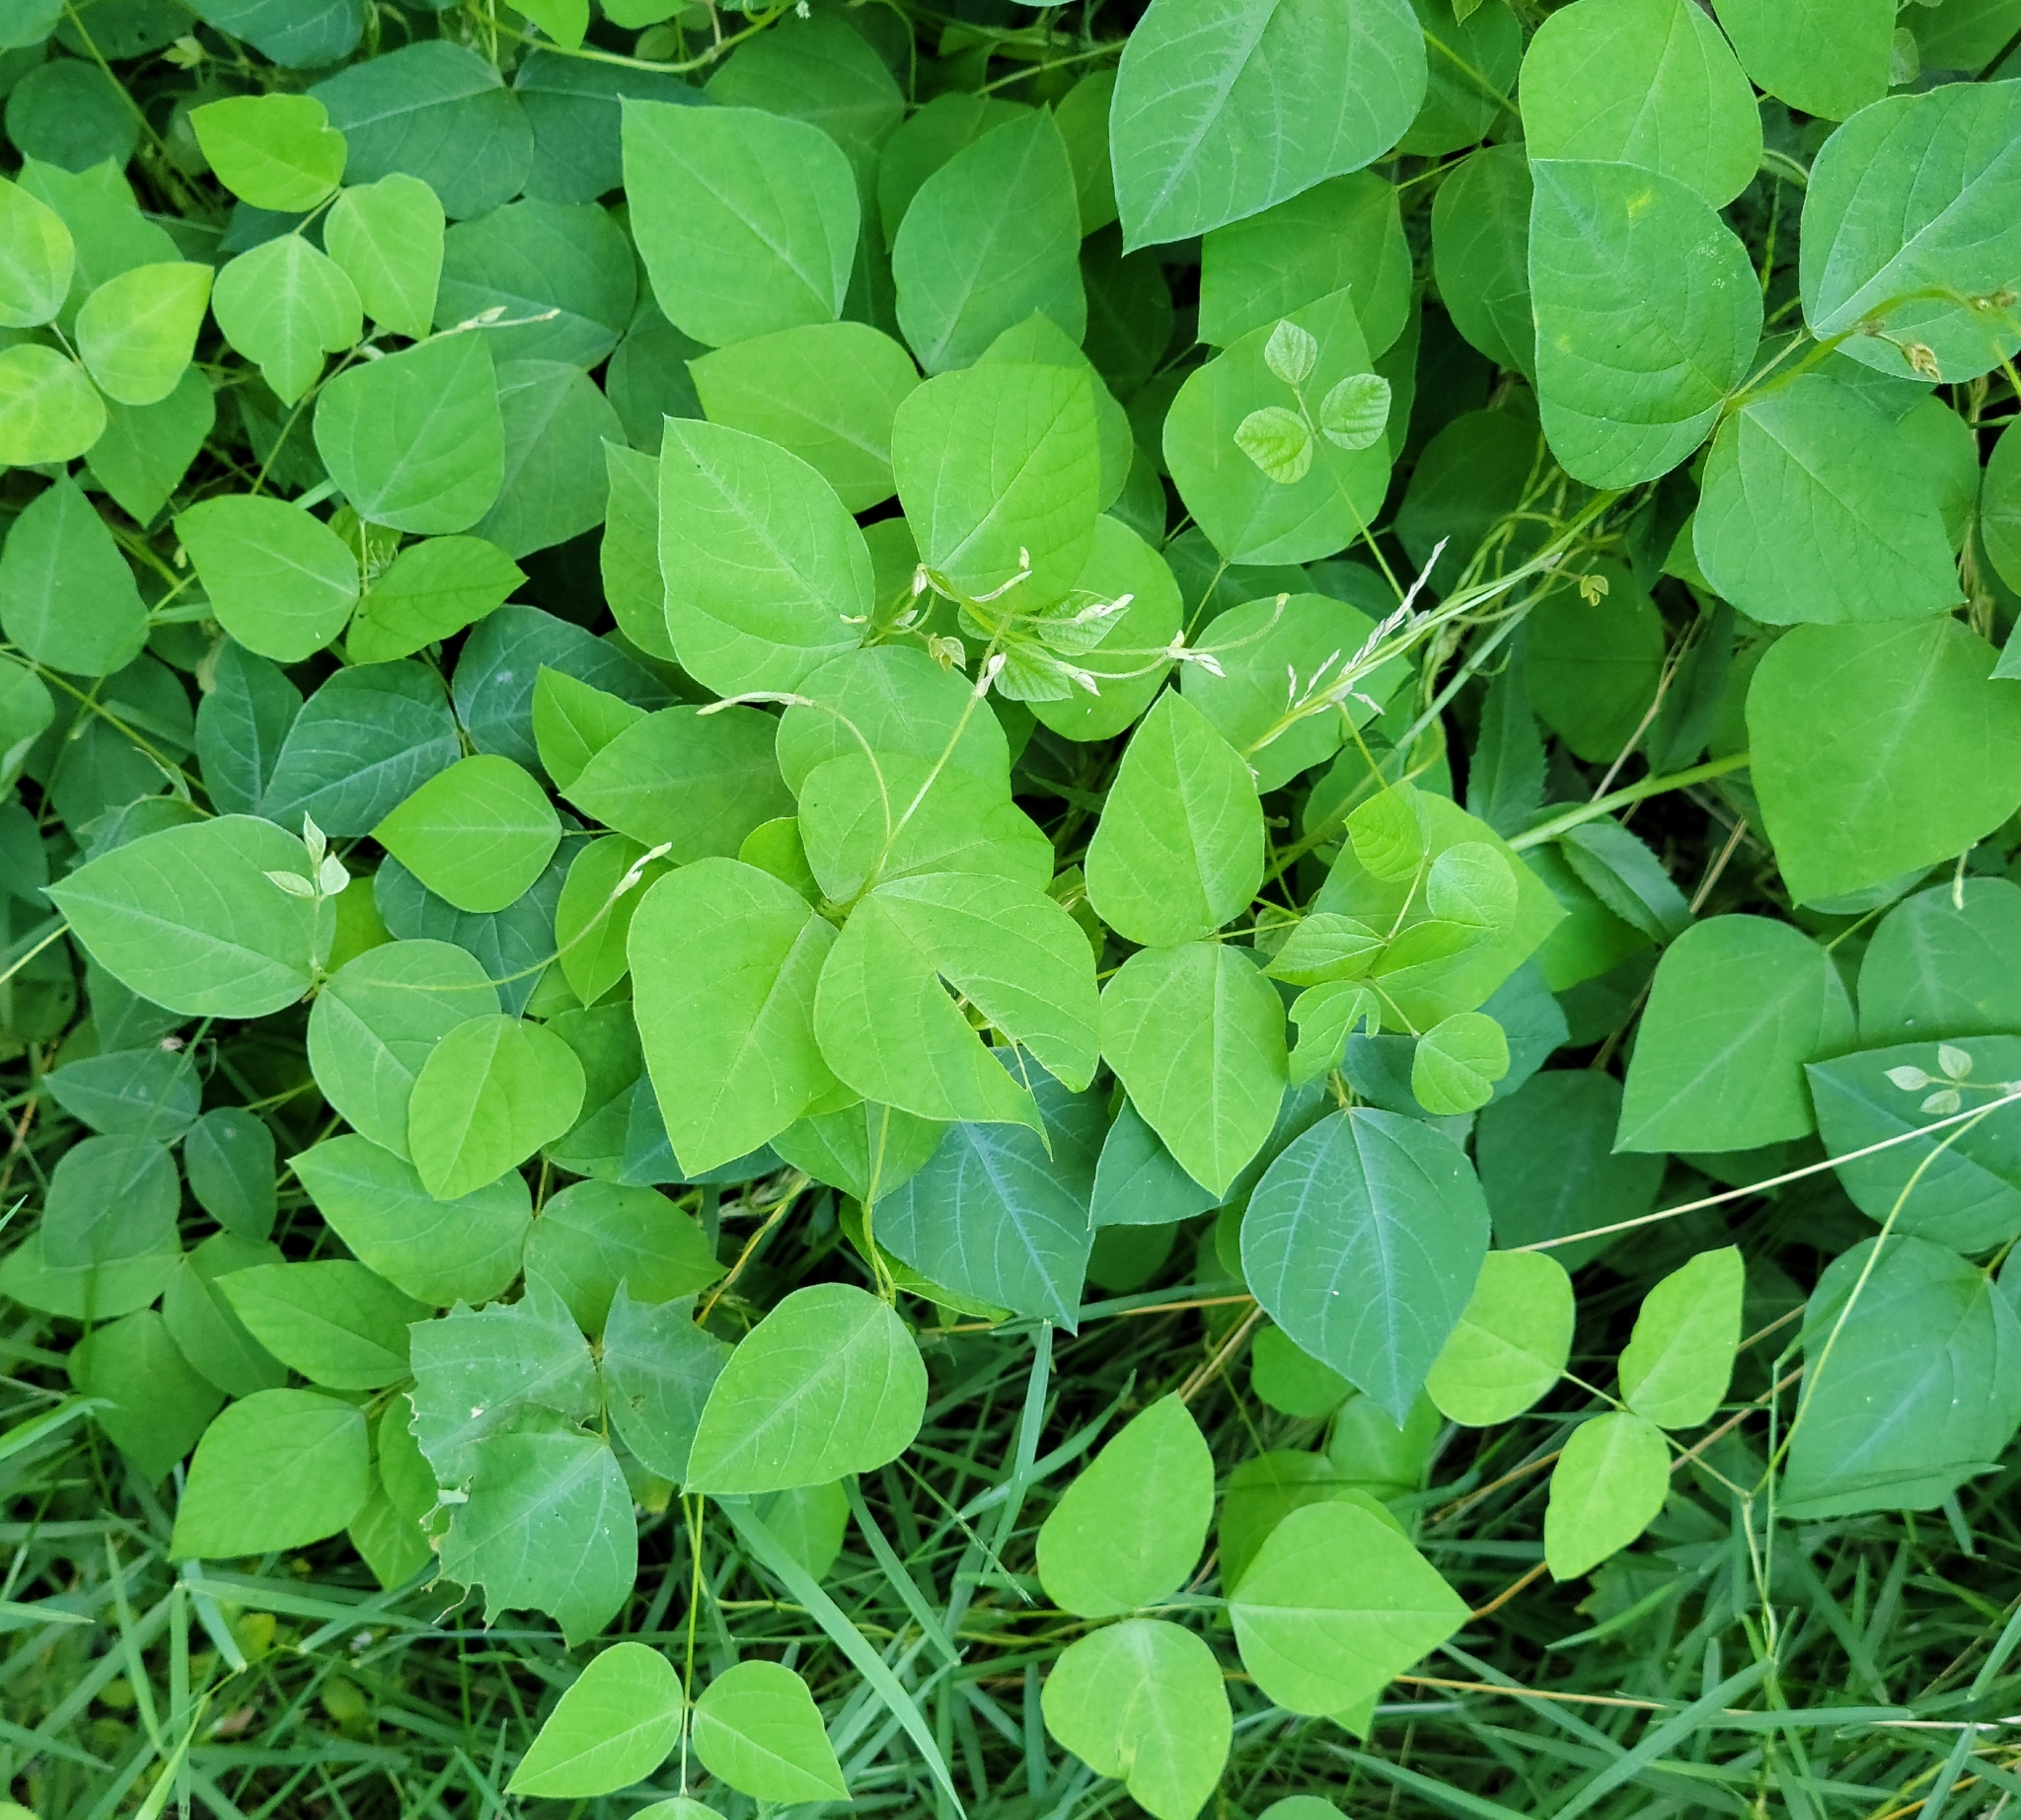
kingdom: Plantae
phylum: Tracheophyta
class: Magnoliopsida
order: Fabales
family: Fabaceae
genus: Amphicarpaea
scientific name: Amphicarpaea bracteata
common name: American hog peanut
